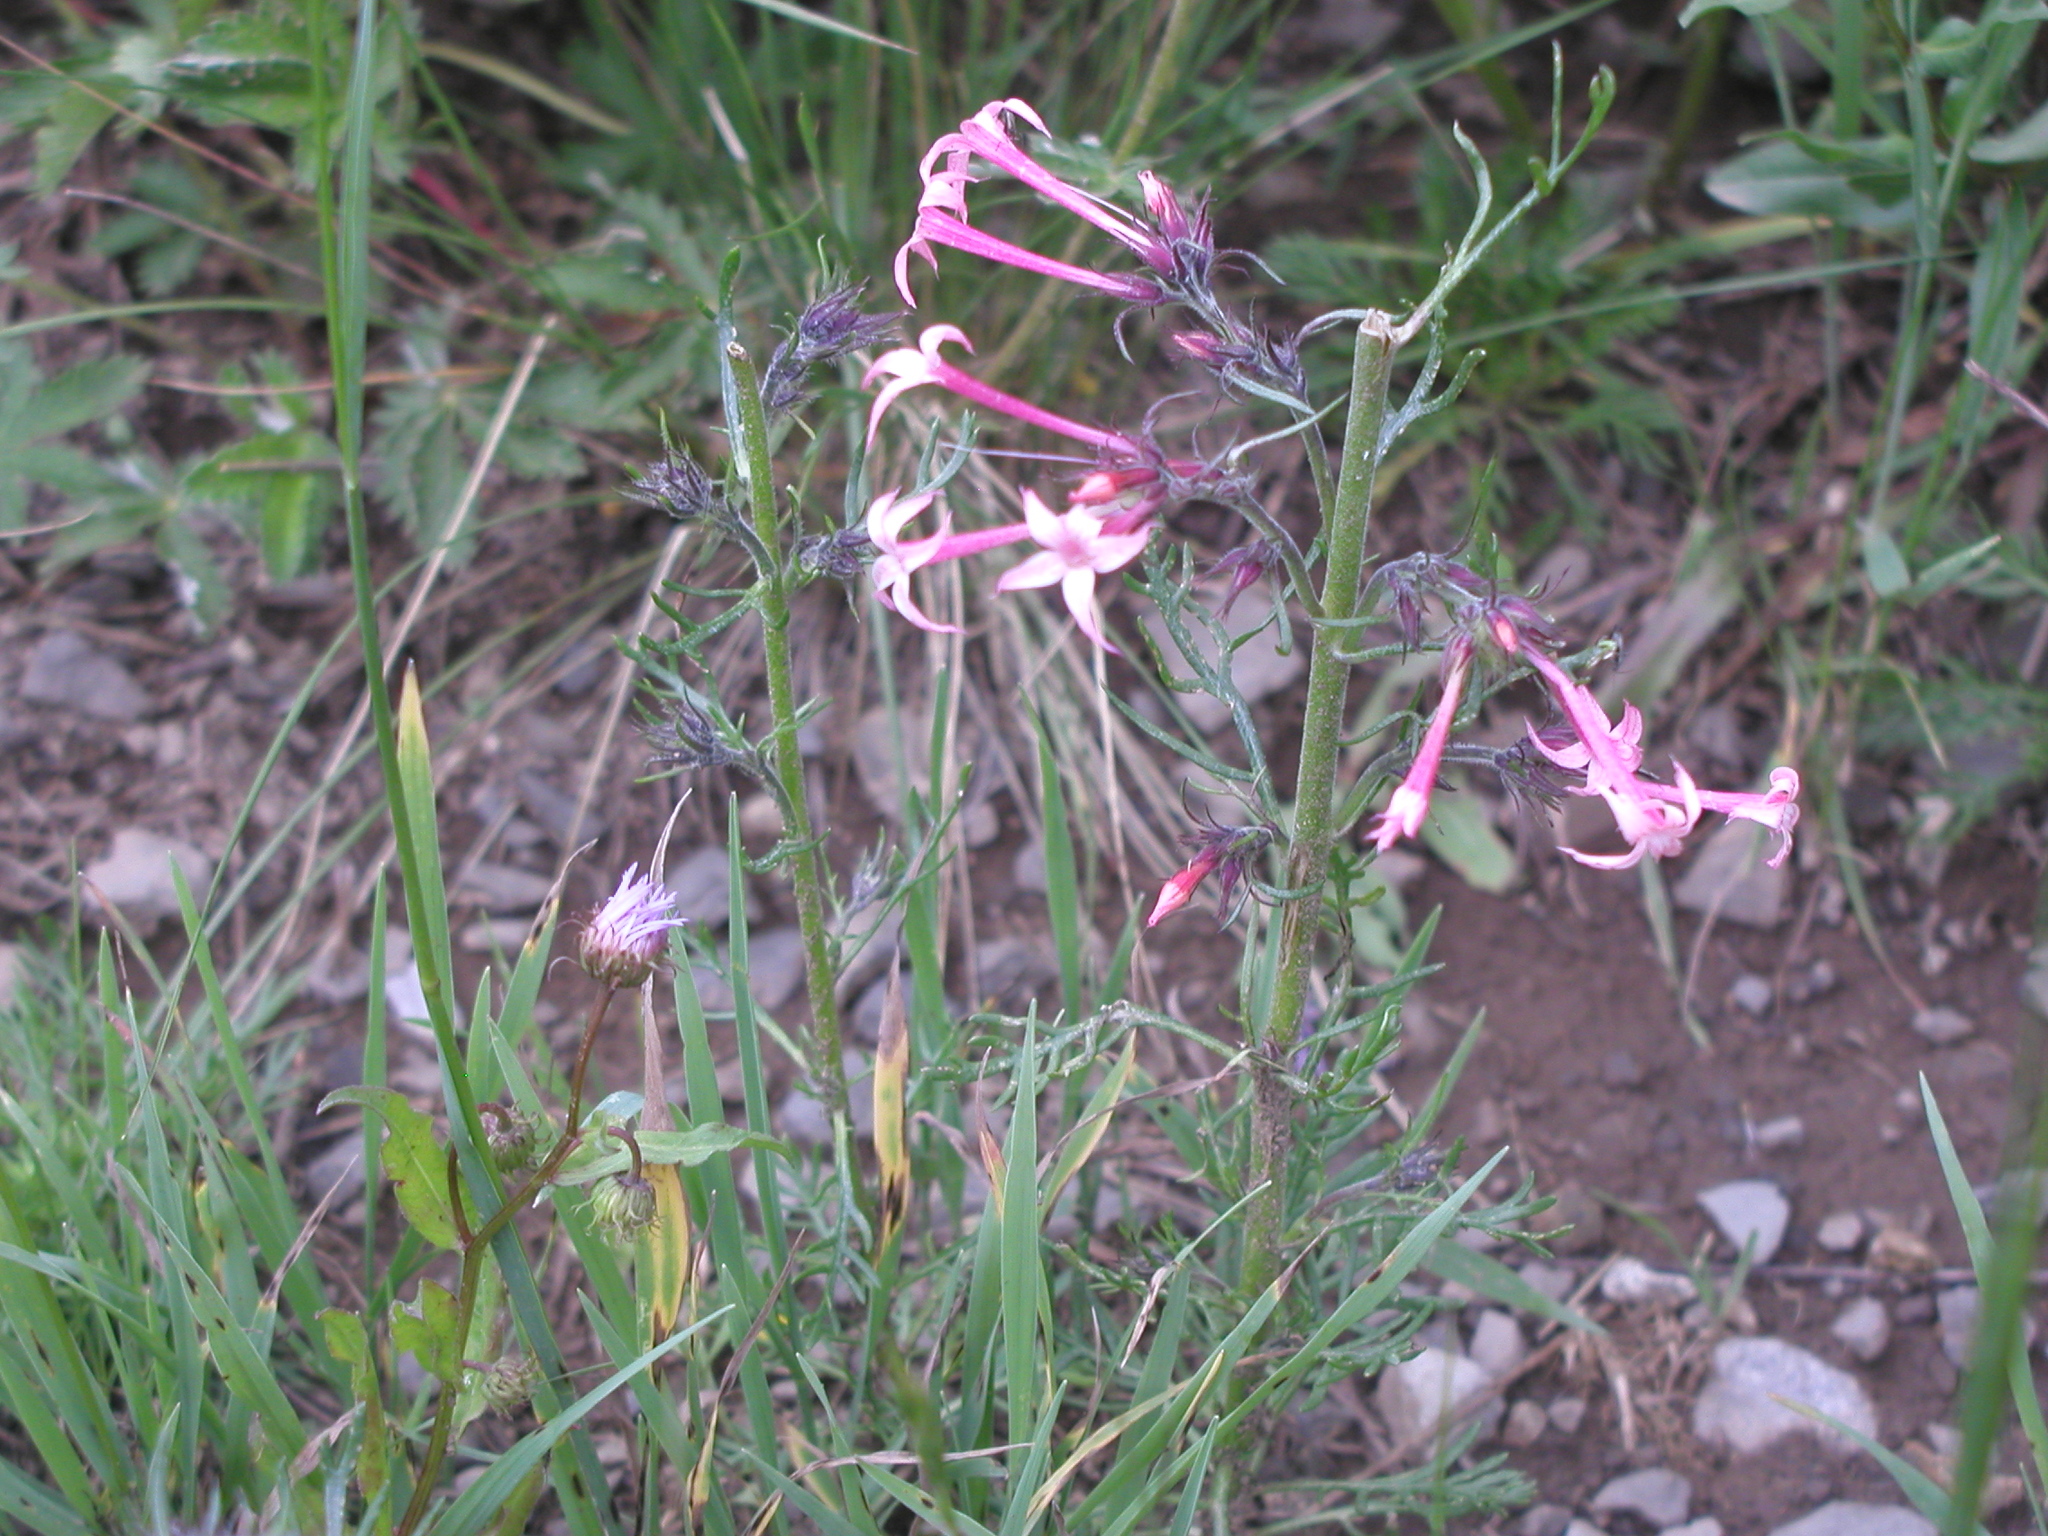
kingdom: Plantae
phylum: Tracheophyta
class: Magnoliopsida
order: Ericales
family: Polemoniaceae
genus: Ipomopsis
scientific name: Ipomopsis tenuituba
